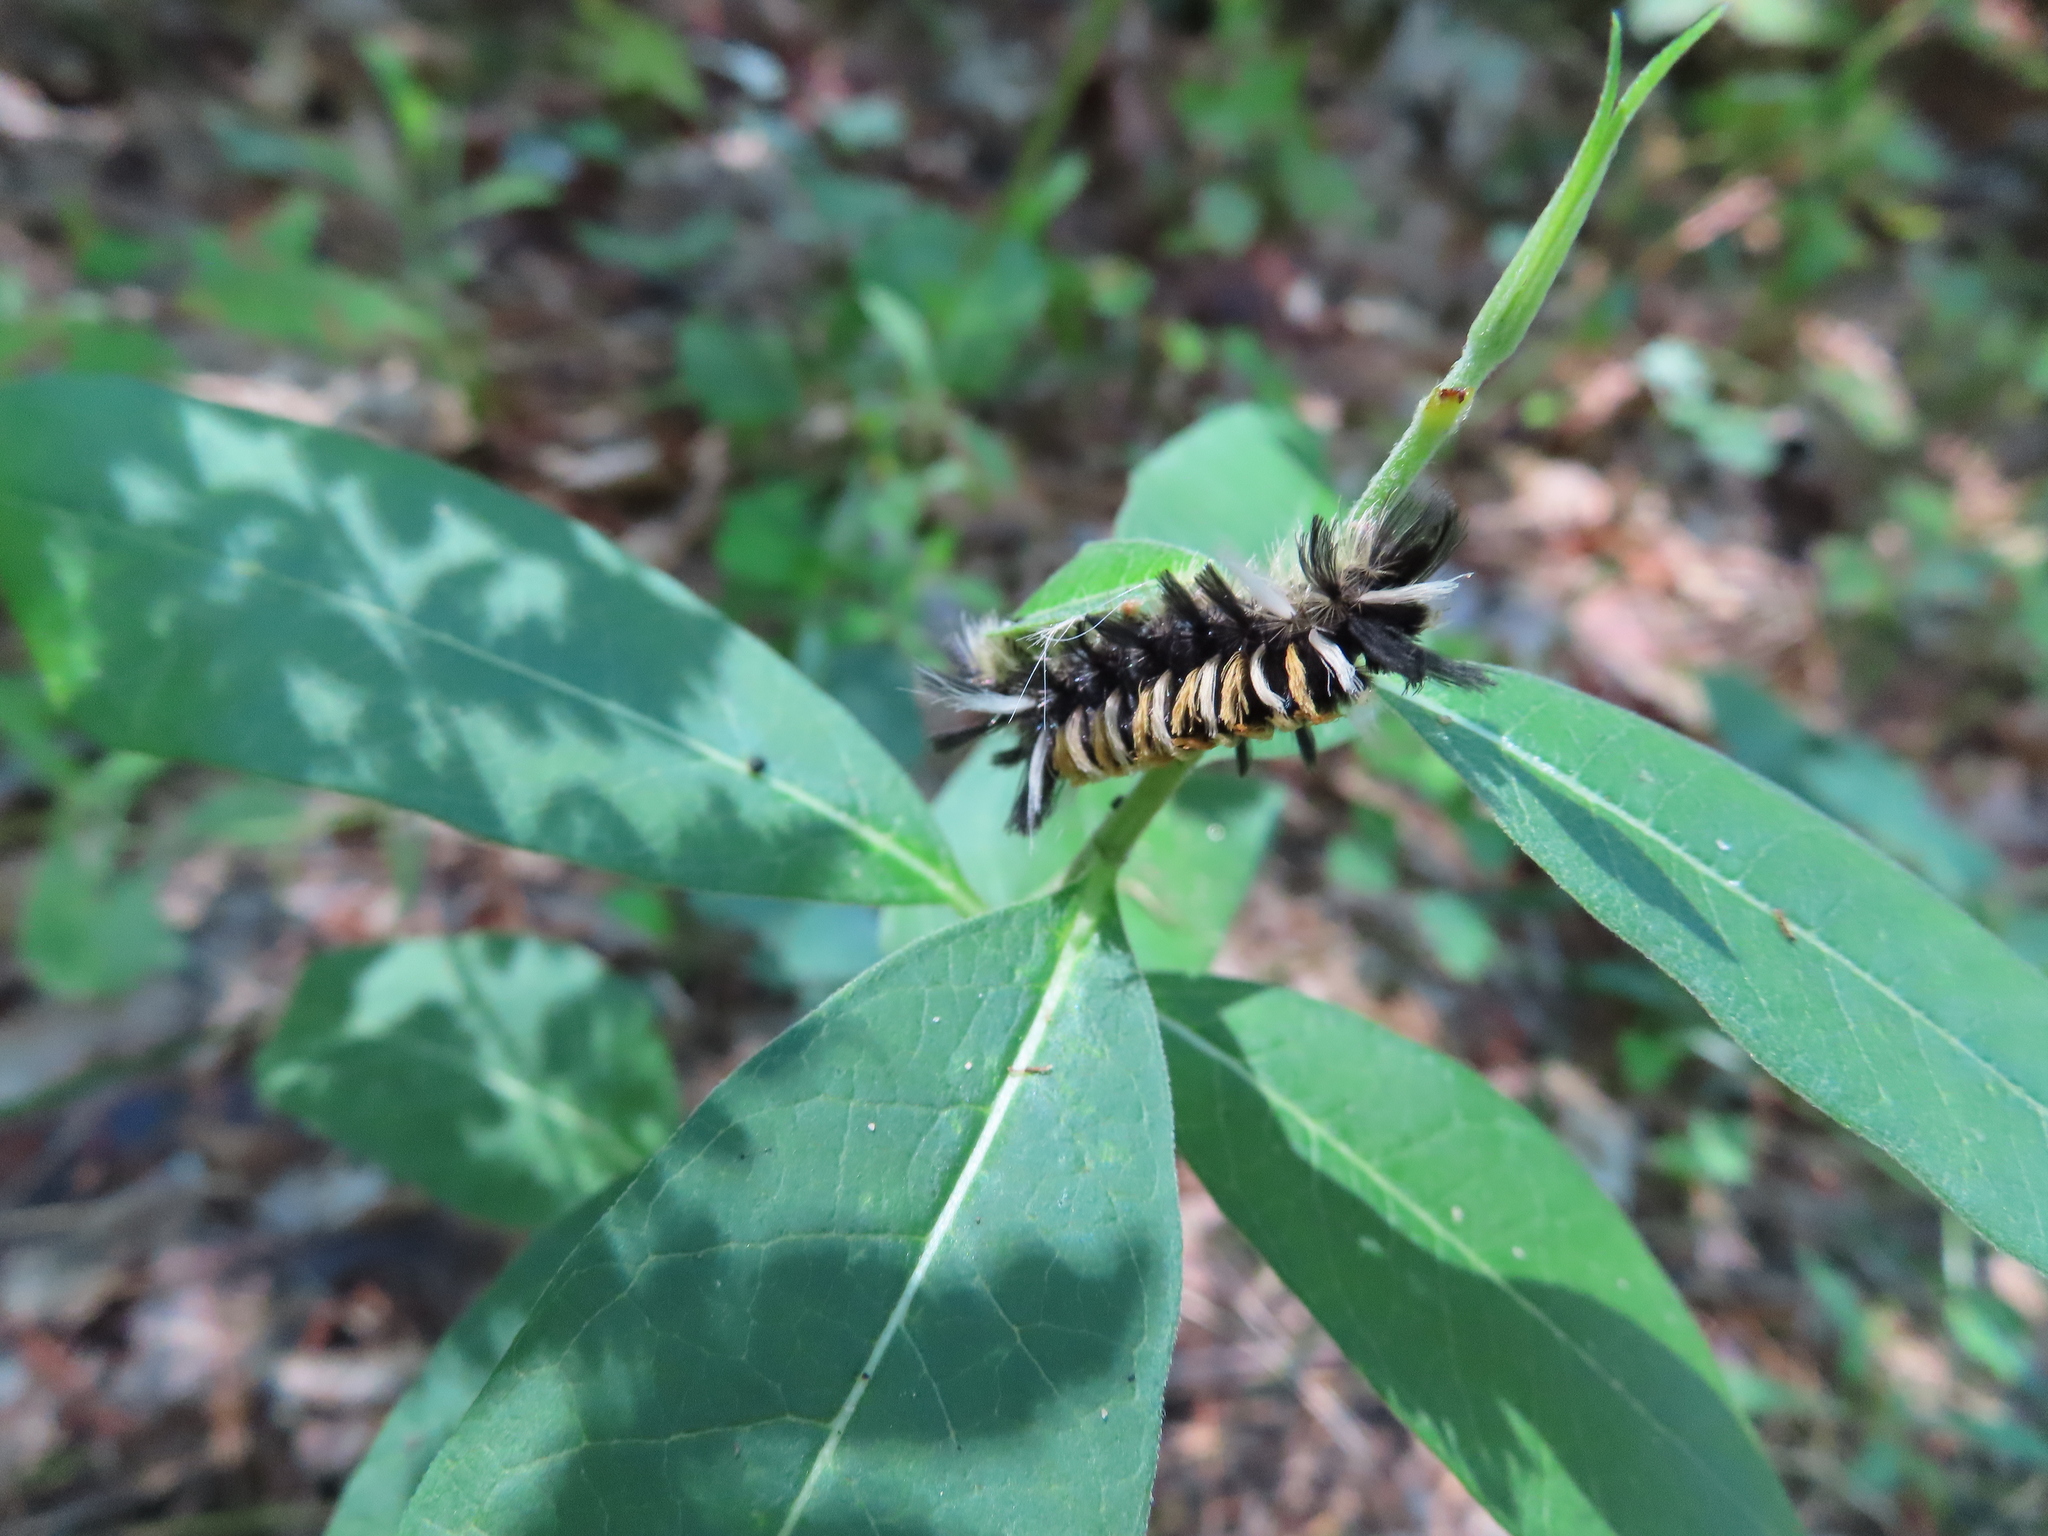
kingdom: Animalia
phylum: Arthropoda
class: Insecta
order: Lepidoptera
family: Erebidae
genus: Euchaetes
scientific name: Euchaetes egle
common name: Milkweed tussock moth
